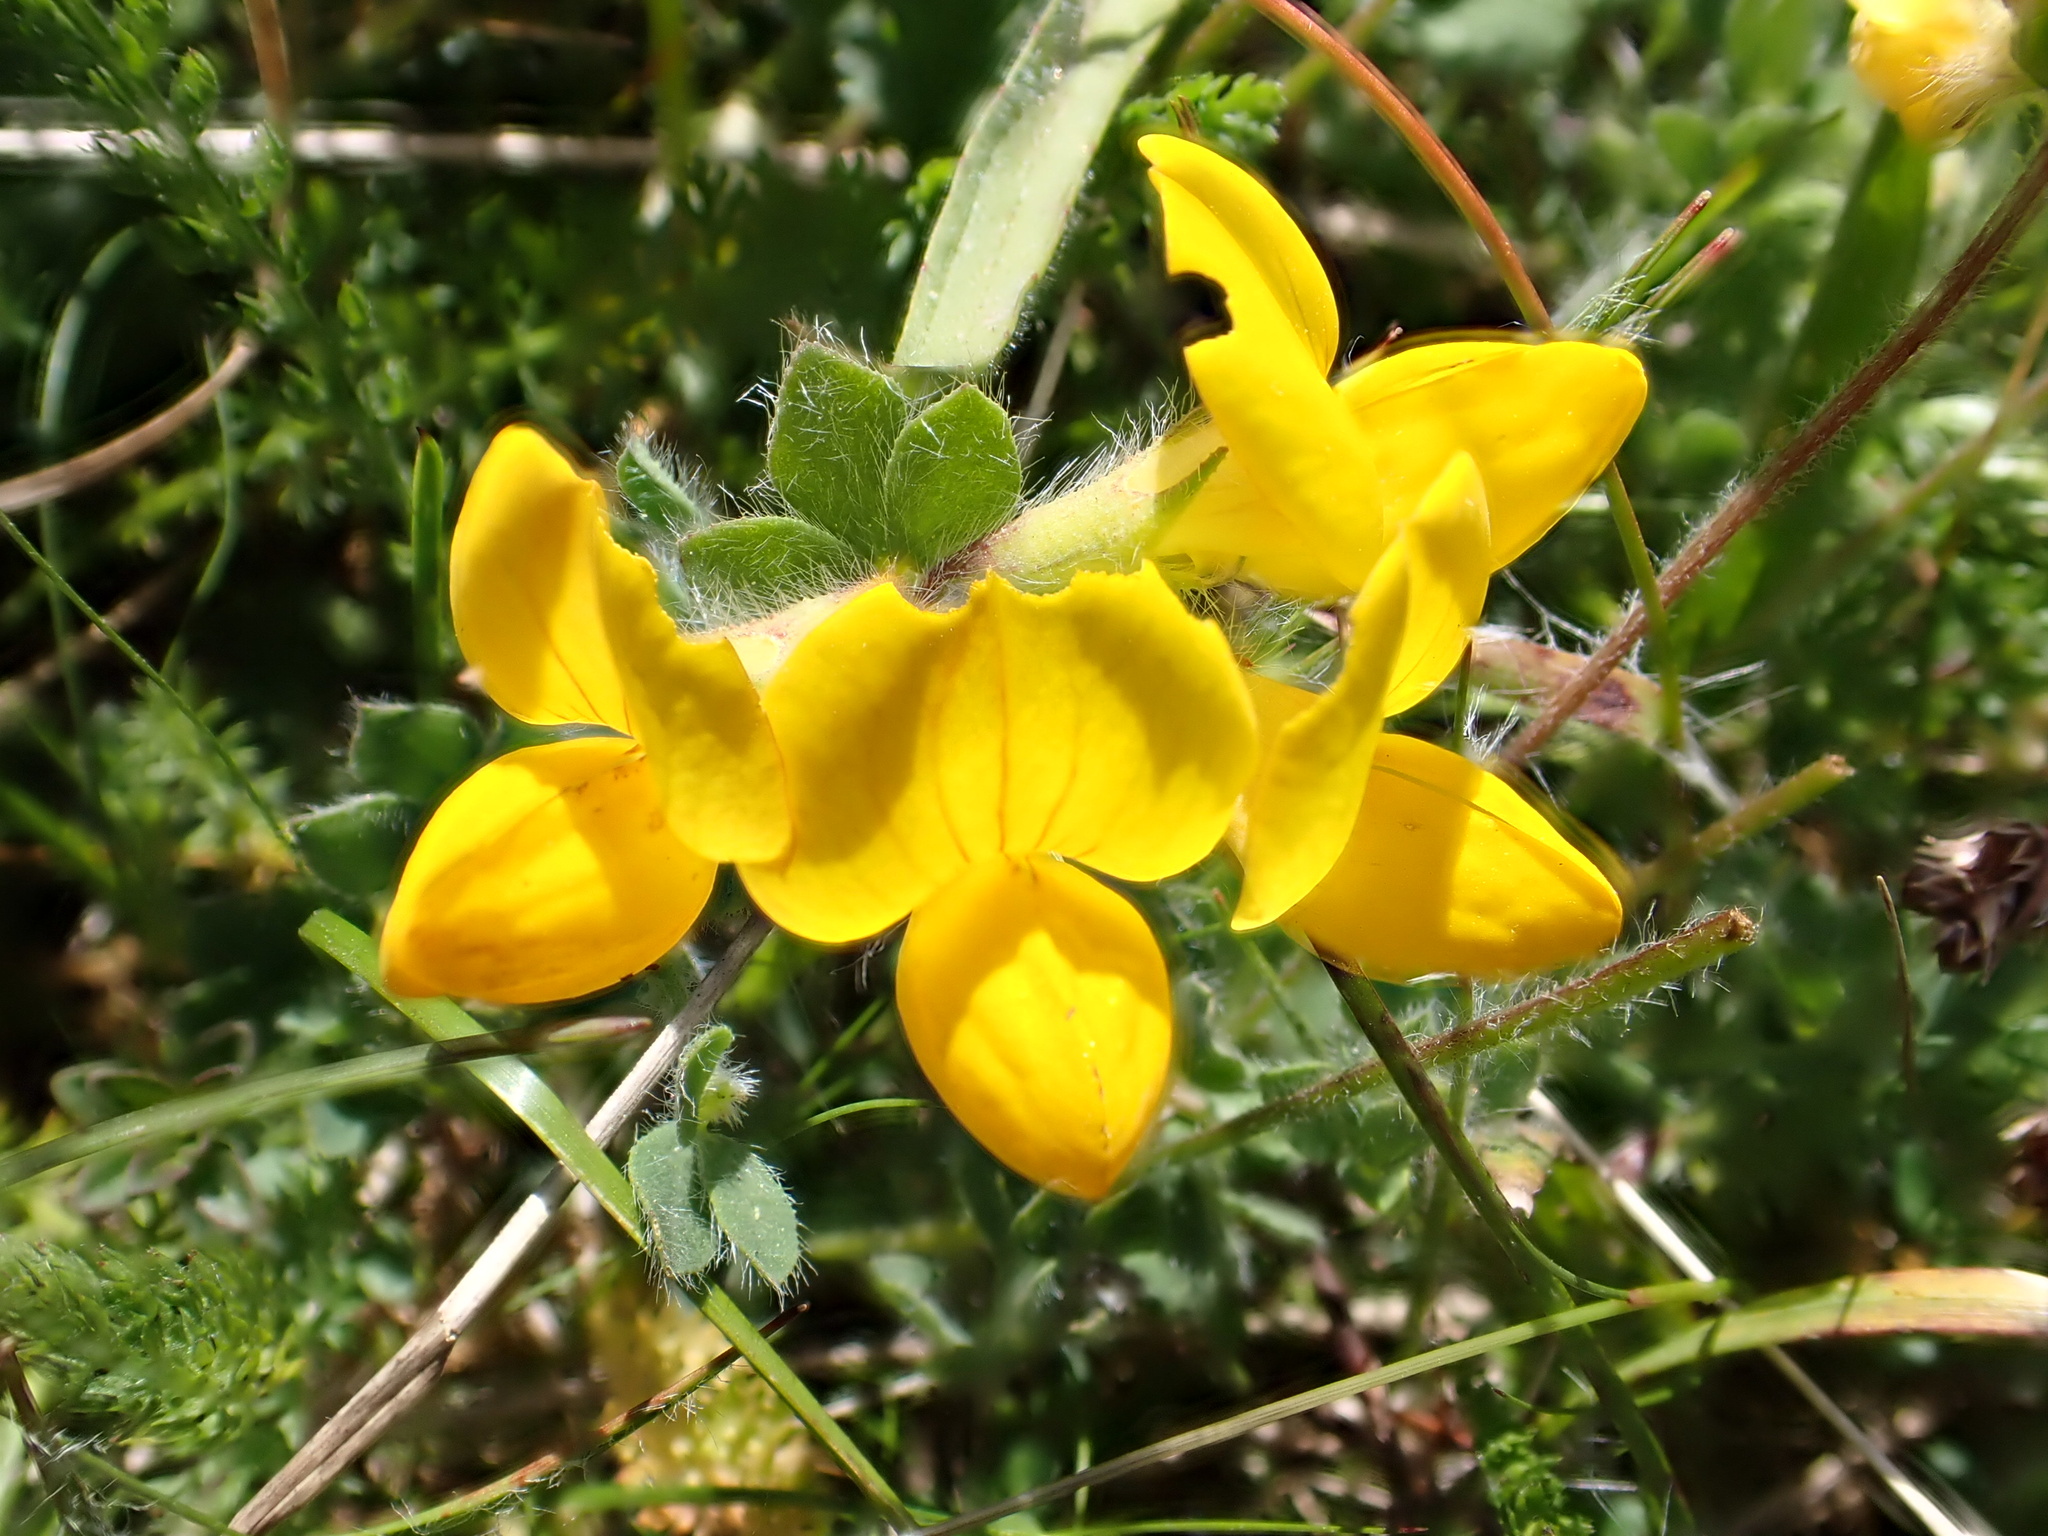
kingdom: Plantae
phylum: Tracheophyta
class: Magnoliopsida
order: Fabales
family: Fabaceae
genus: Lotus
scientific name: Lotus corniculatus
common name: Common bird's-foot-trefoil
